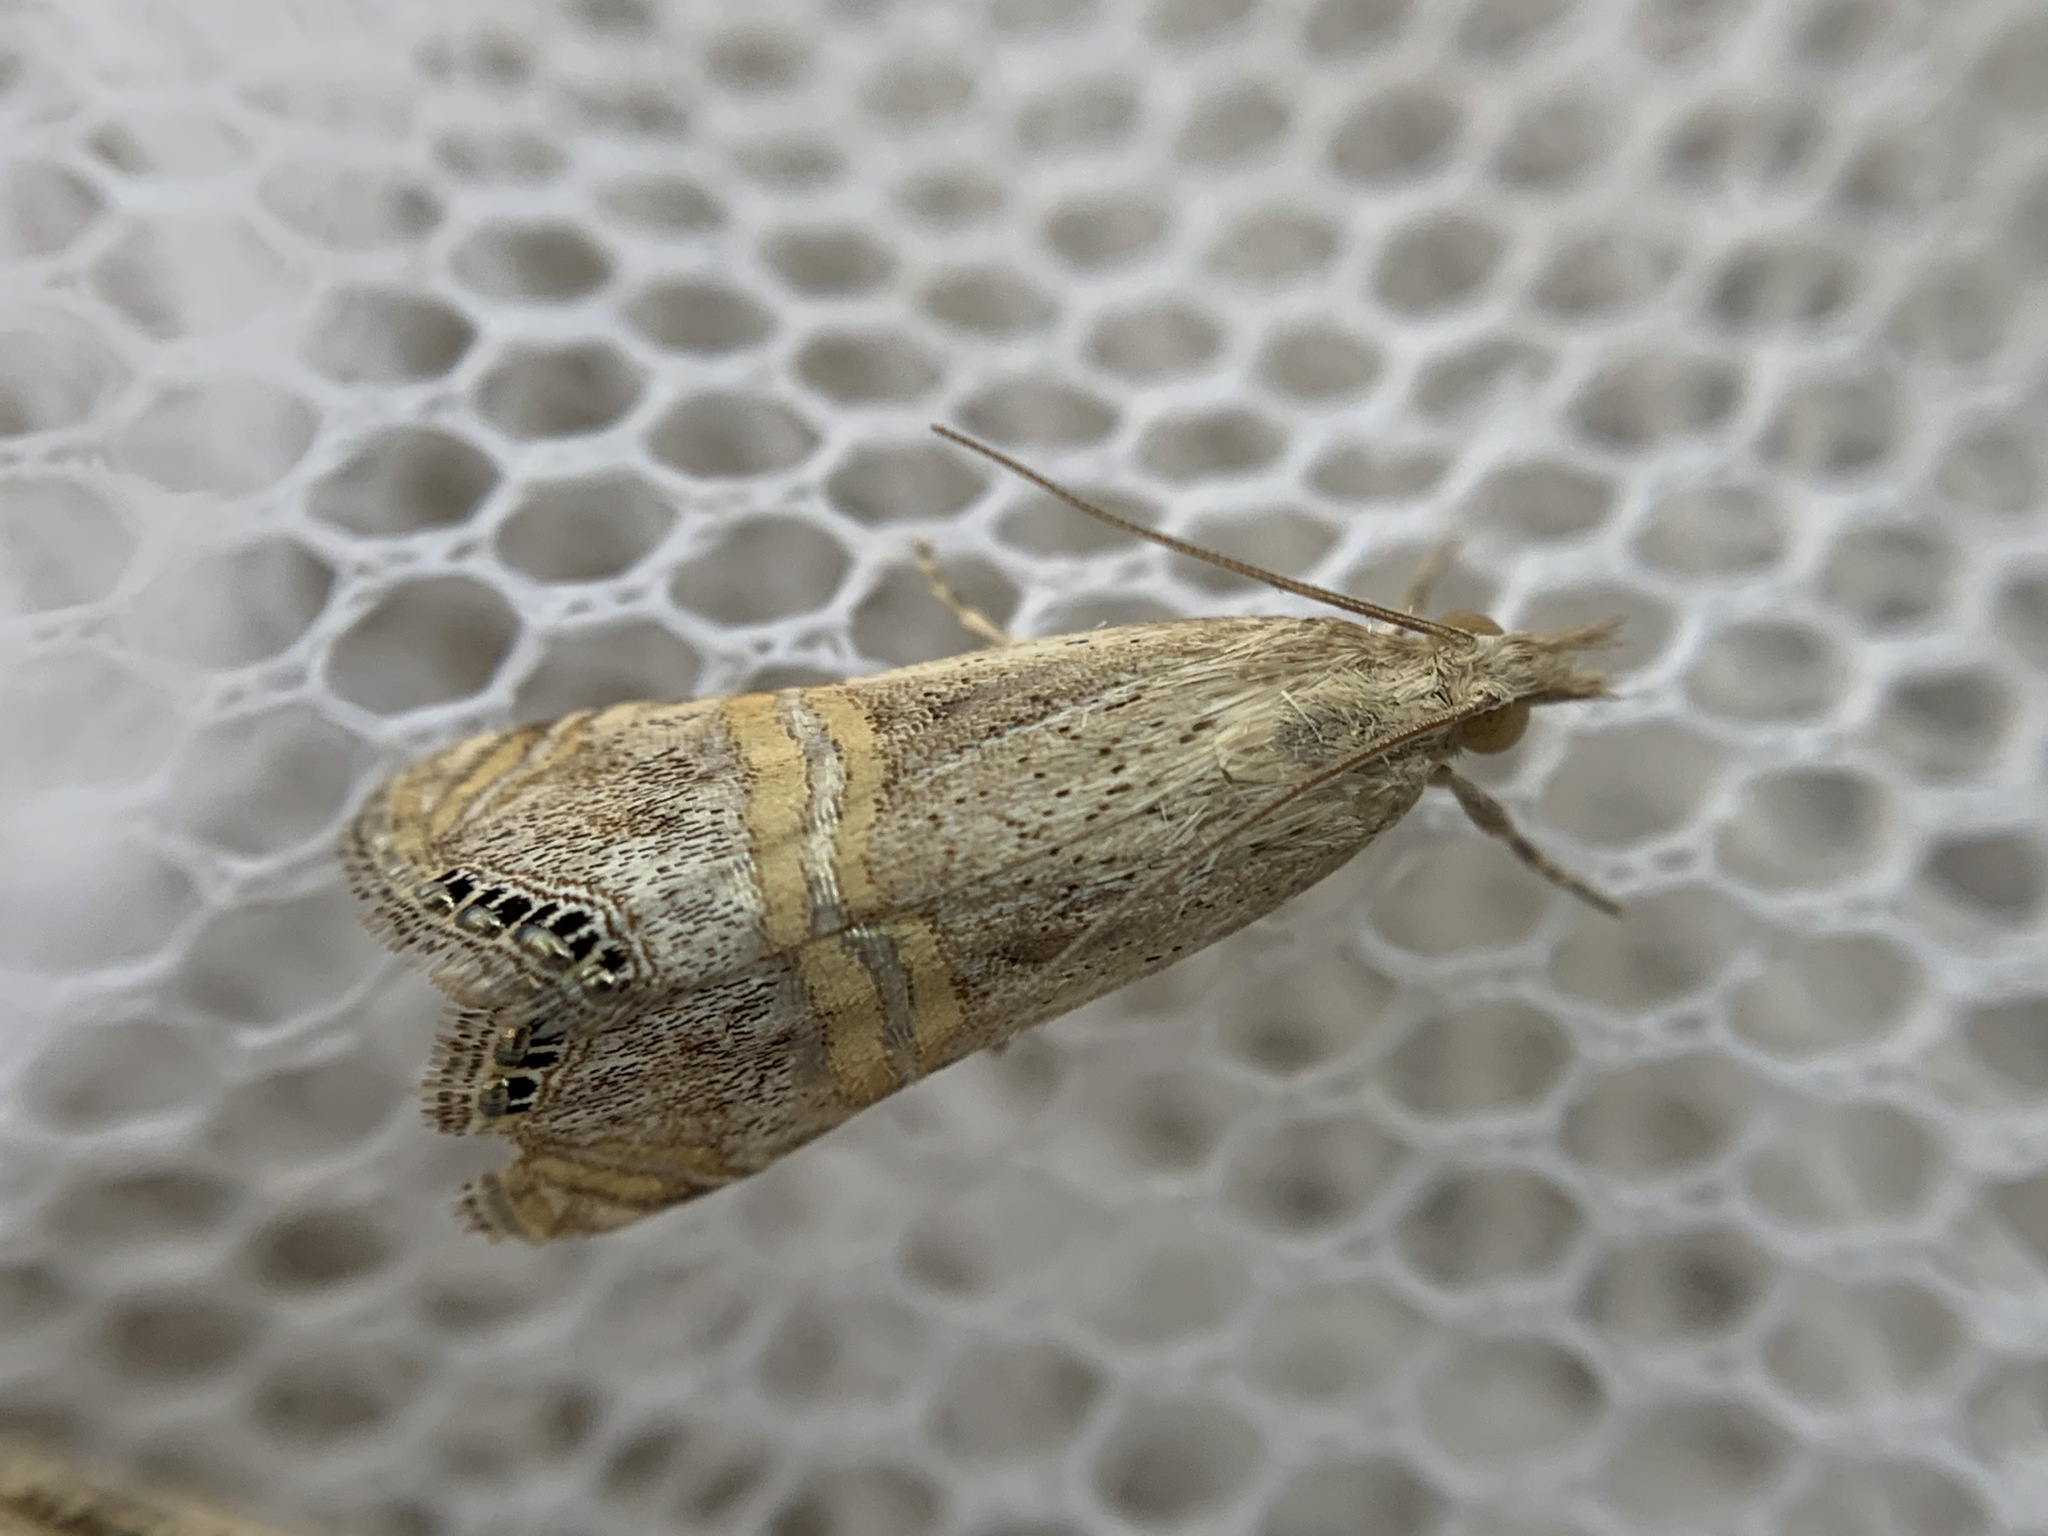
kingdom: Animalia
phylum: Arthropoda
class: Insecta
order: Lepidoptera
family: Crambidae
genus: Euchromius
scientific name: Euchromius ocellea
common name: Necklace veneer moth
